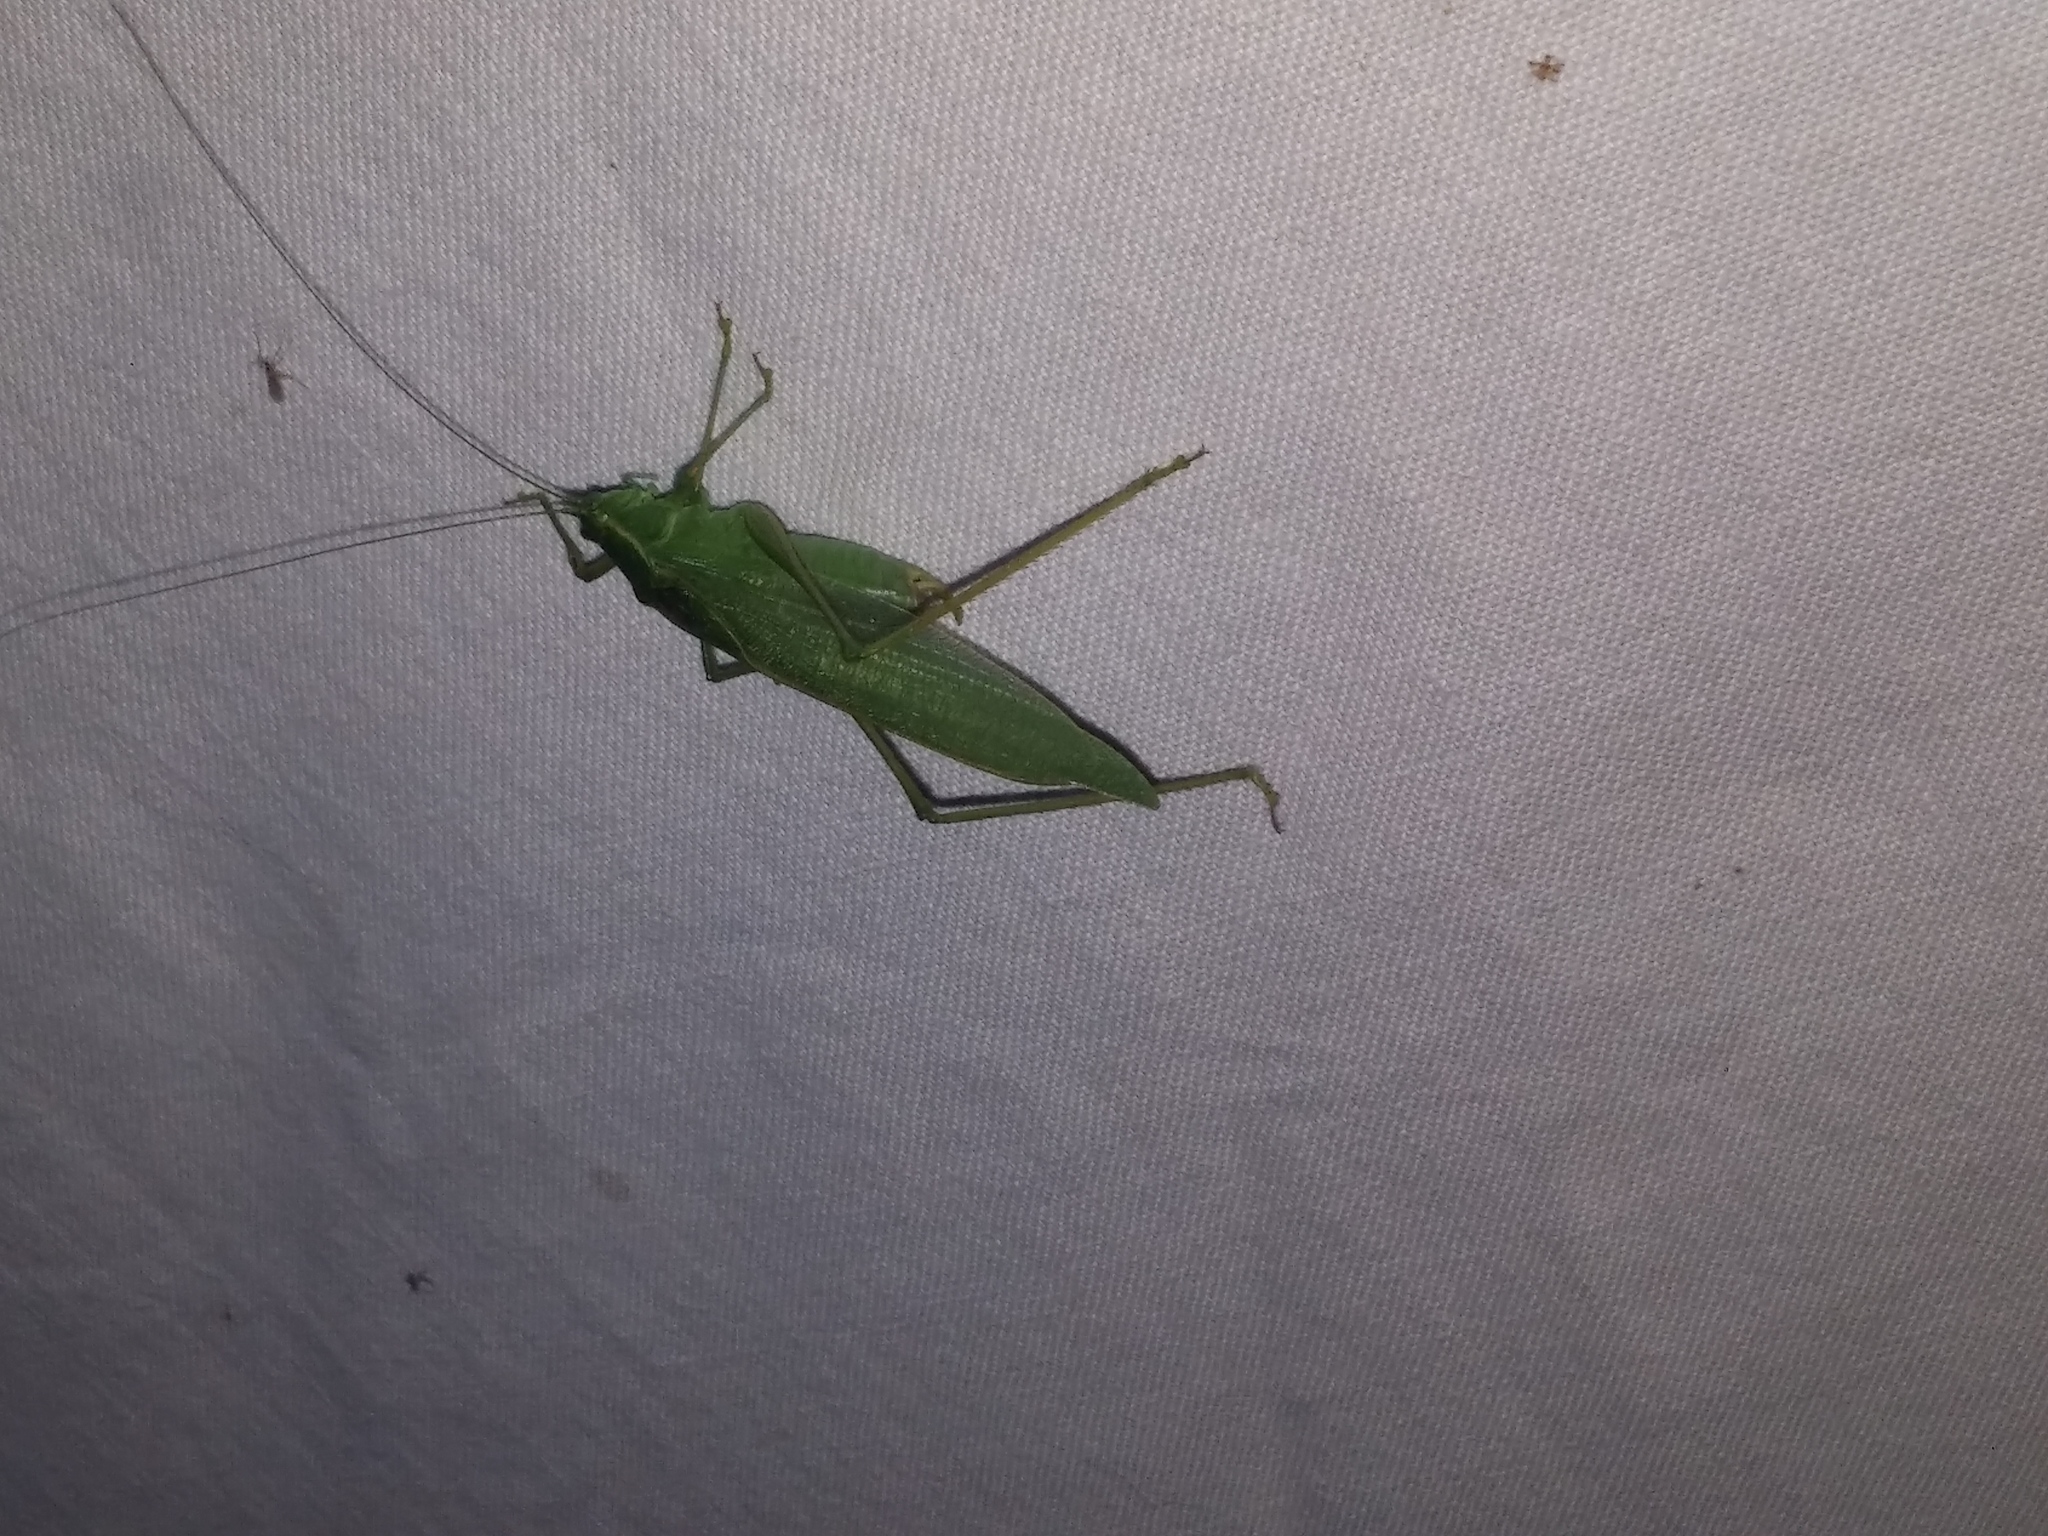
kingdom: Animalia
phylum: Arthropoda
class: Insecta
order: Orthoptera
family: Tettigoniidae
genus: Scudderia
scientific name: Scudderia septentrionalis
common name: Northern bush-katydid
